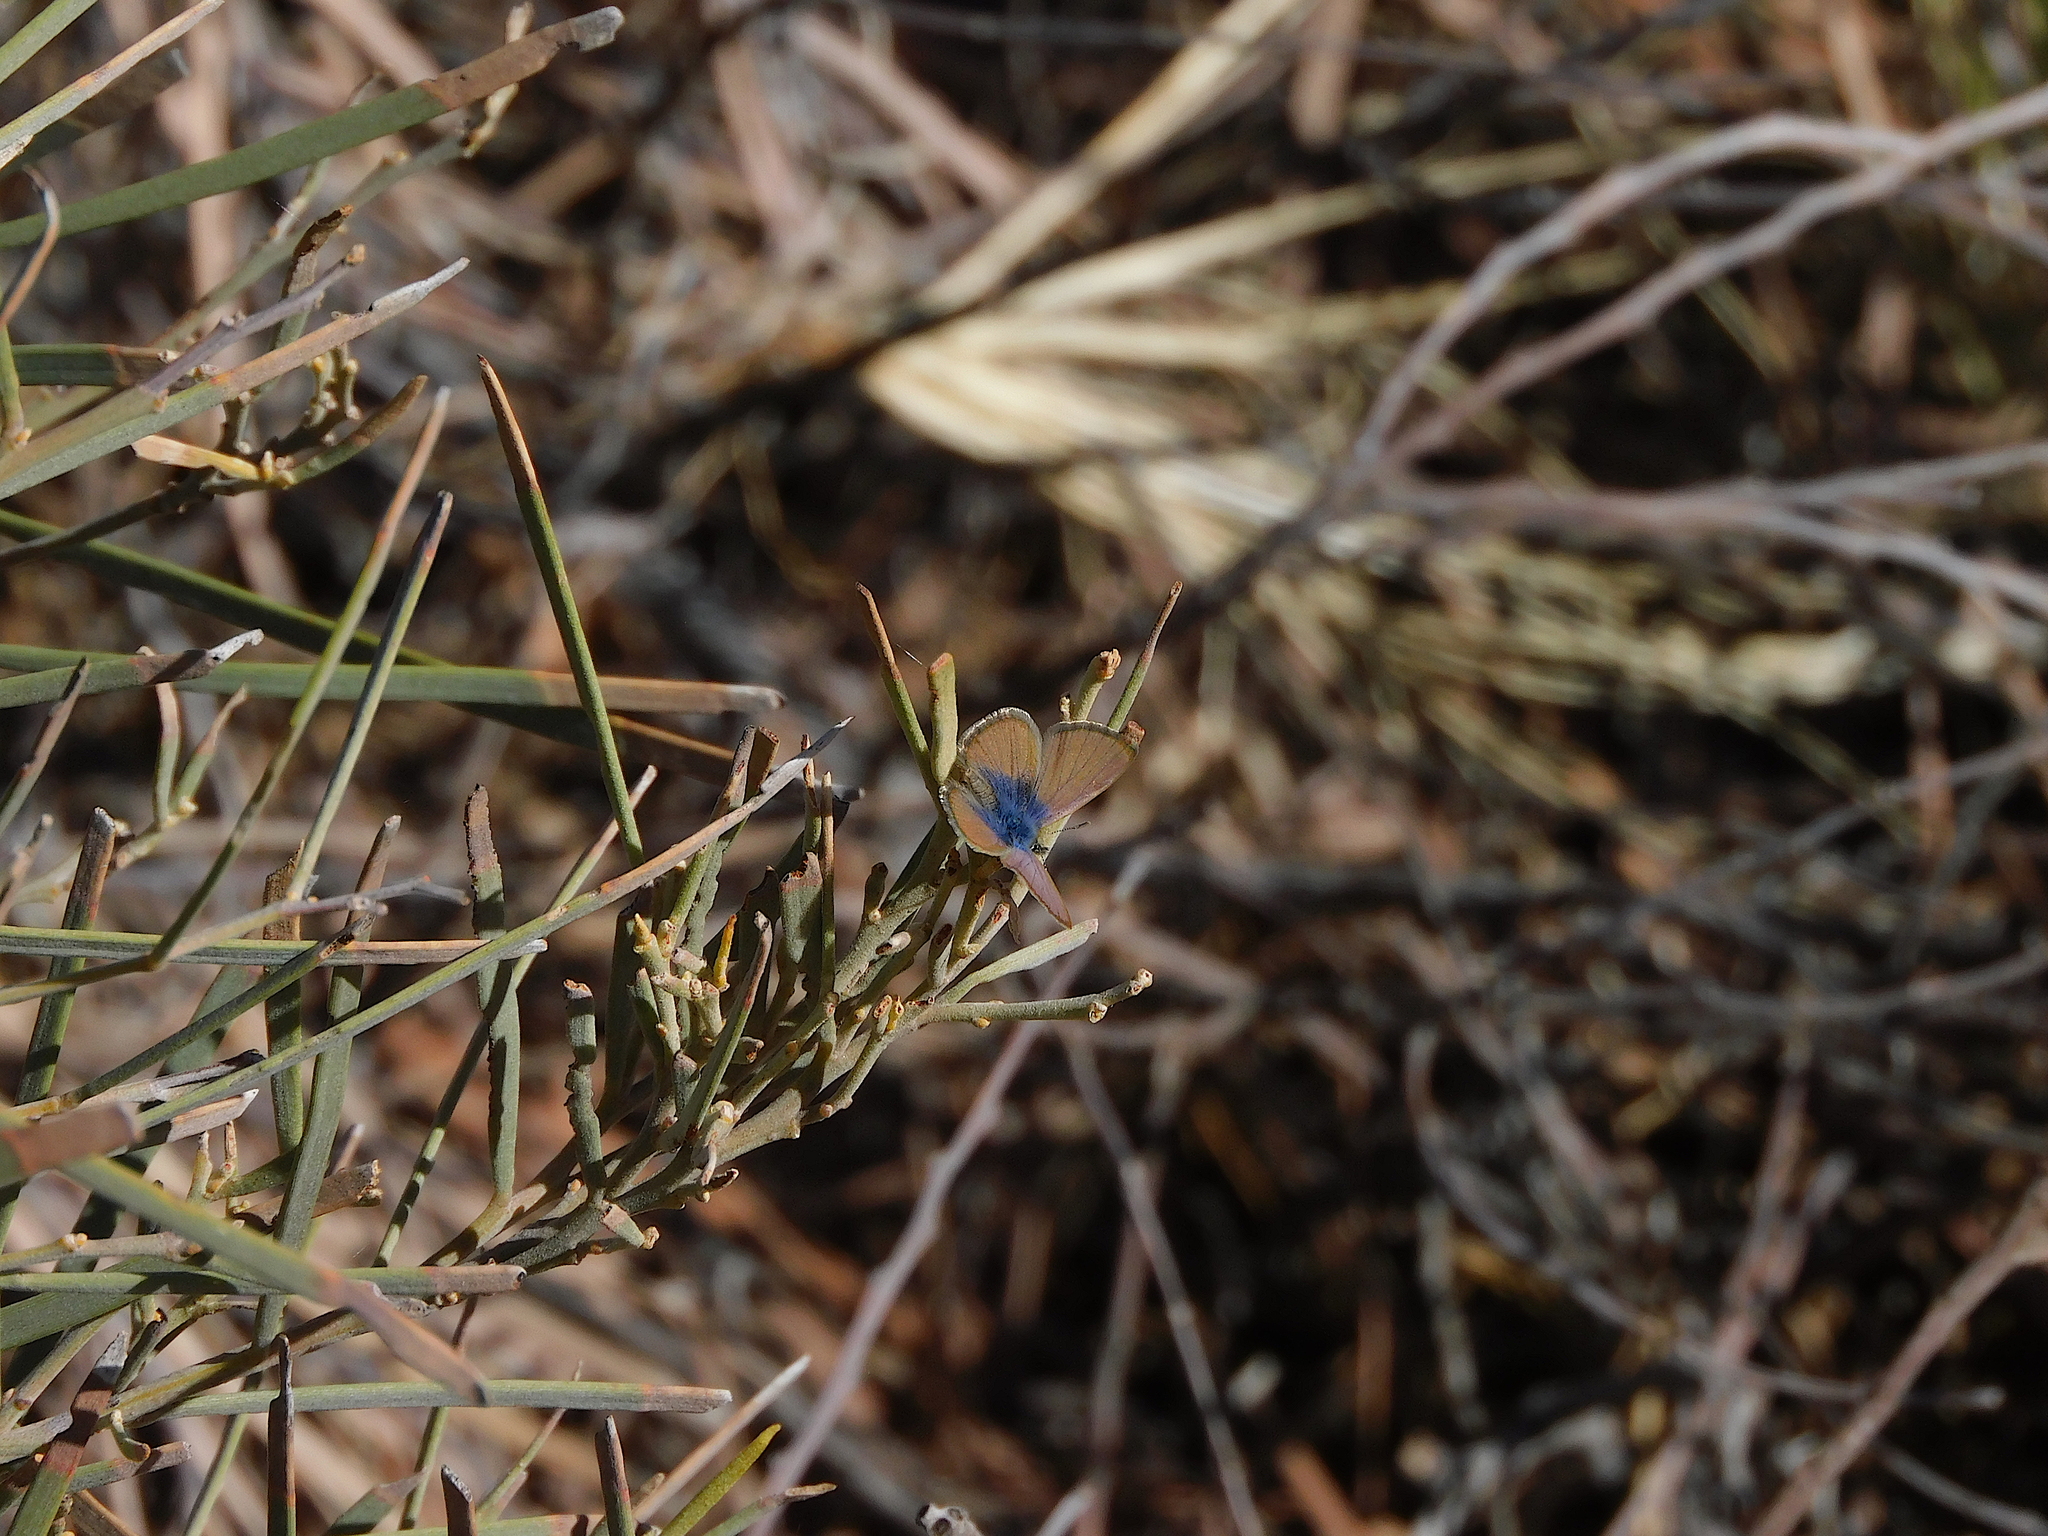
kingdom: Animalia
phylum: Arthropoda
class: Insecta
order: Lepidoptera
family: Lycaenidae
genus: Nacaduba
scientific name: Nacaduba biocellata
